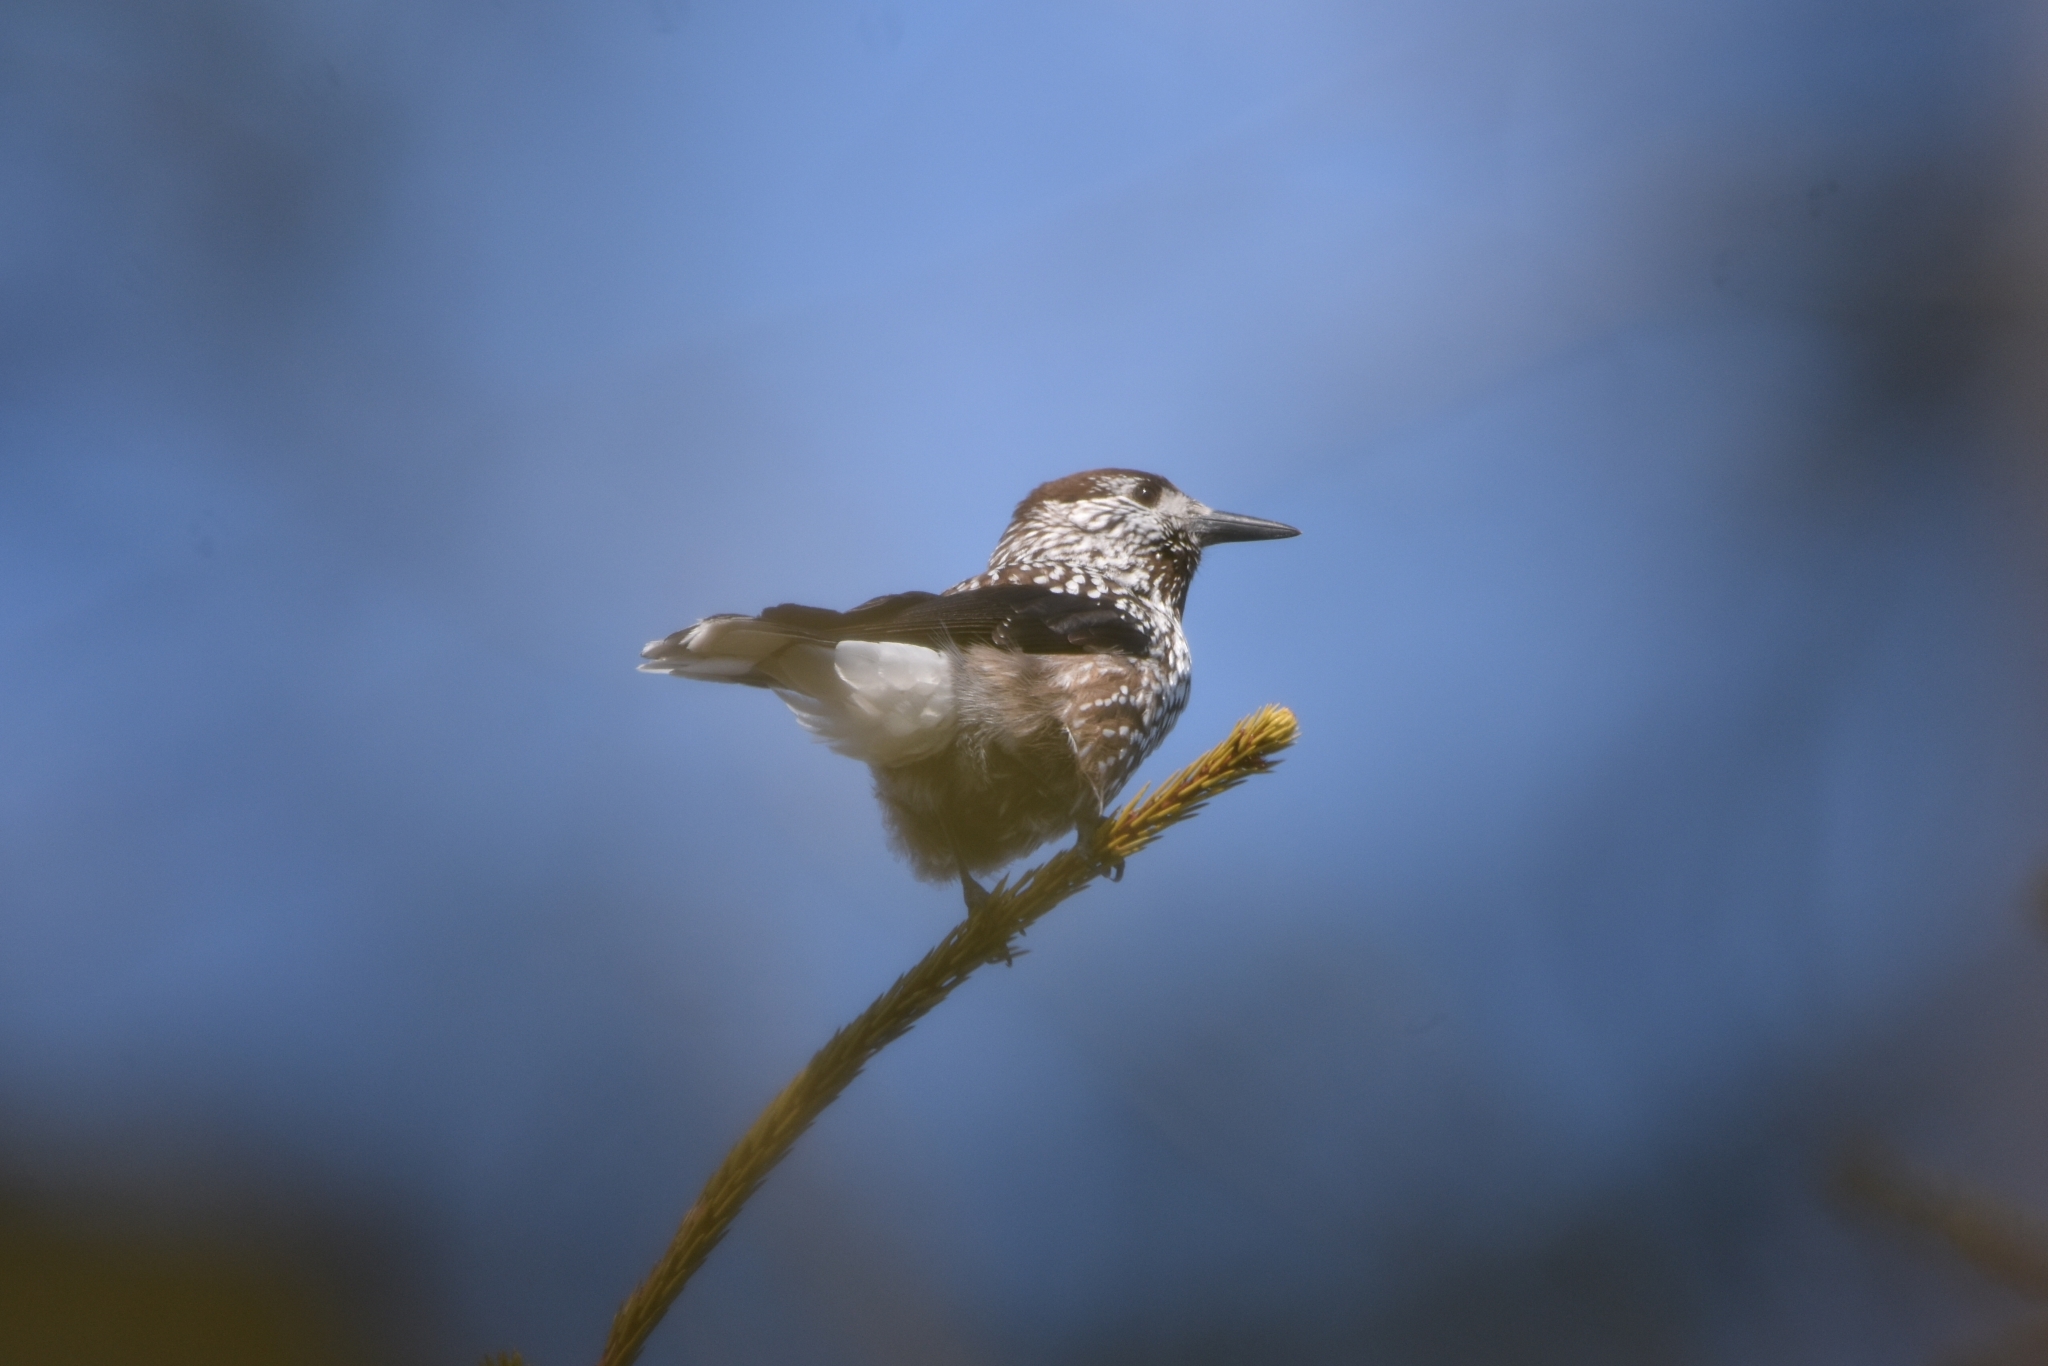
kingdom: Animalia
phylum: Chordata
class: Aves
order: Passeriformes
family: Corvidae
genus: Nucifraga
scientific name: Nucifraga caryocatactes
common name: Spotted nutcracker
